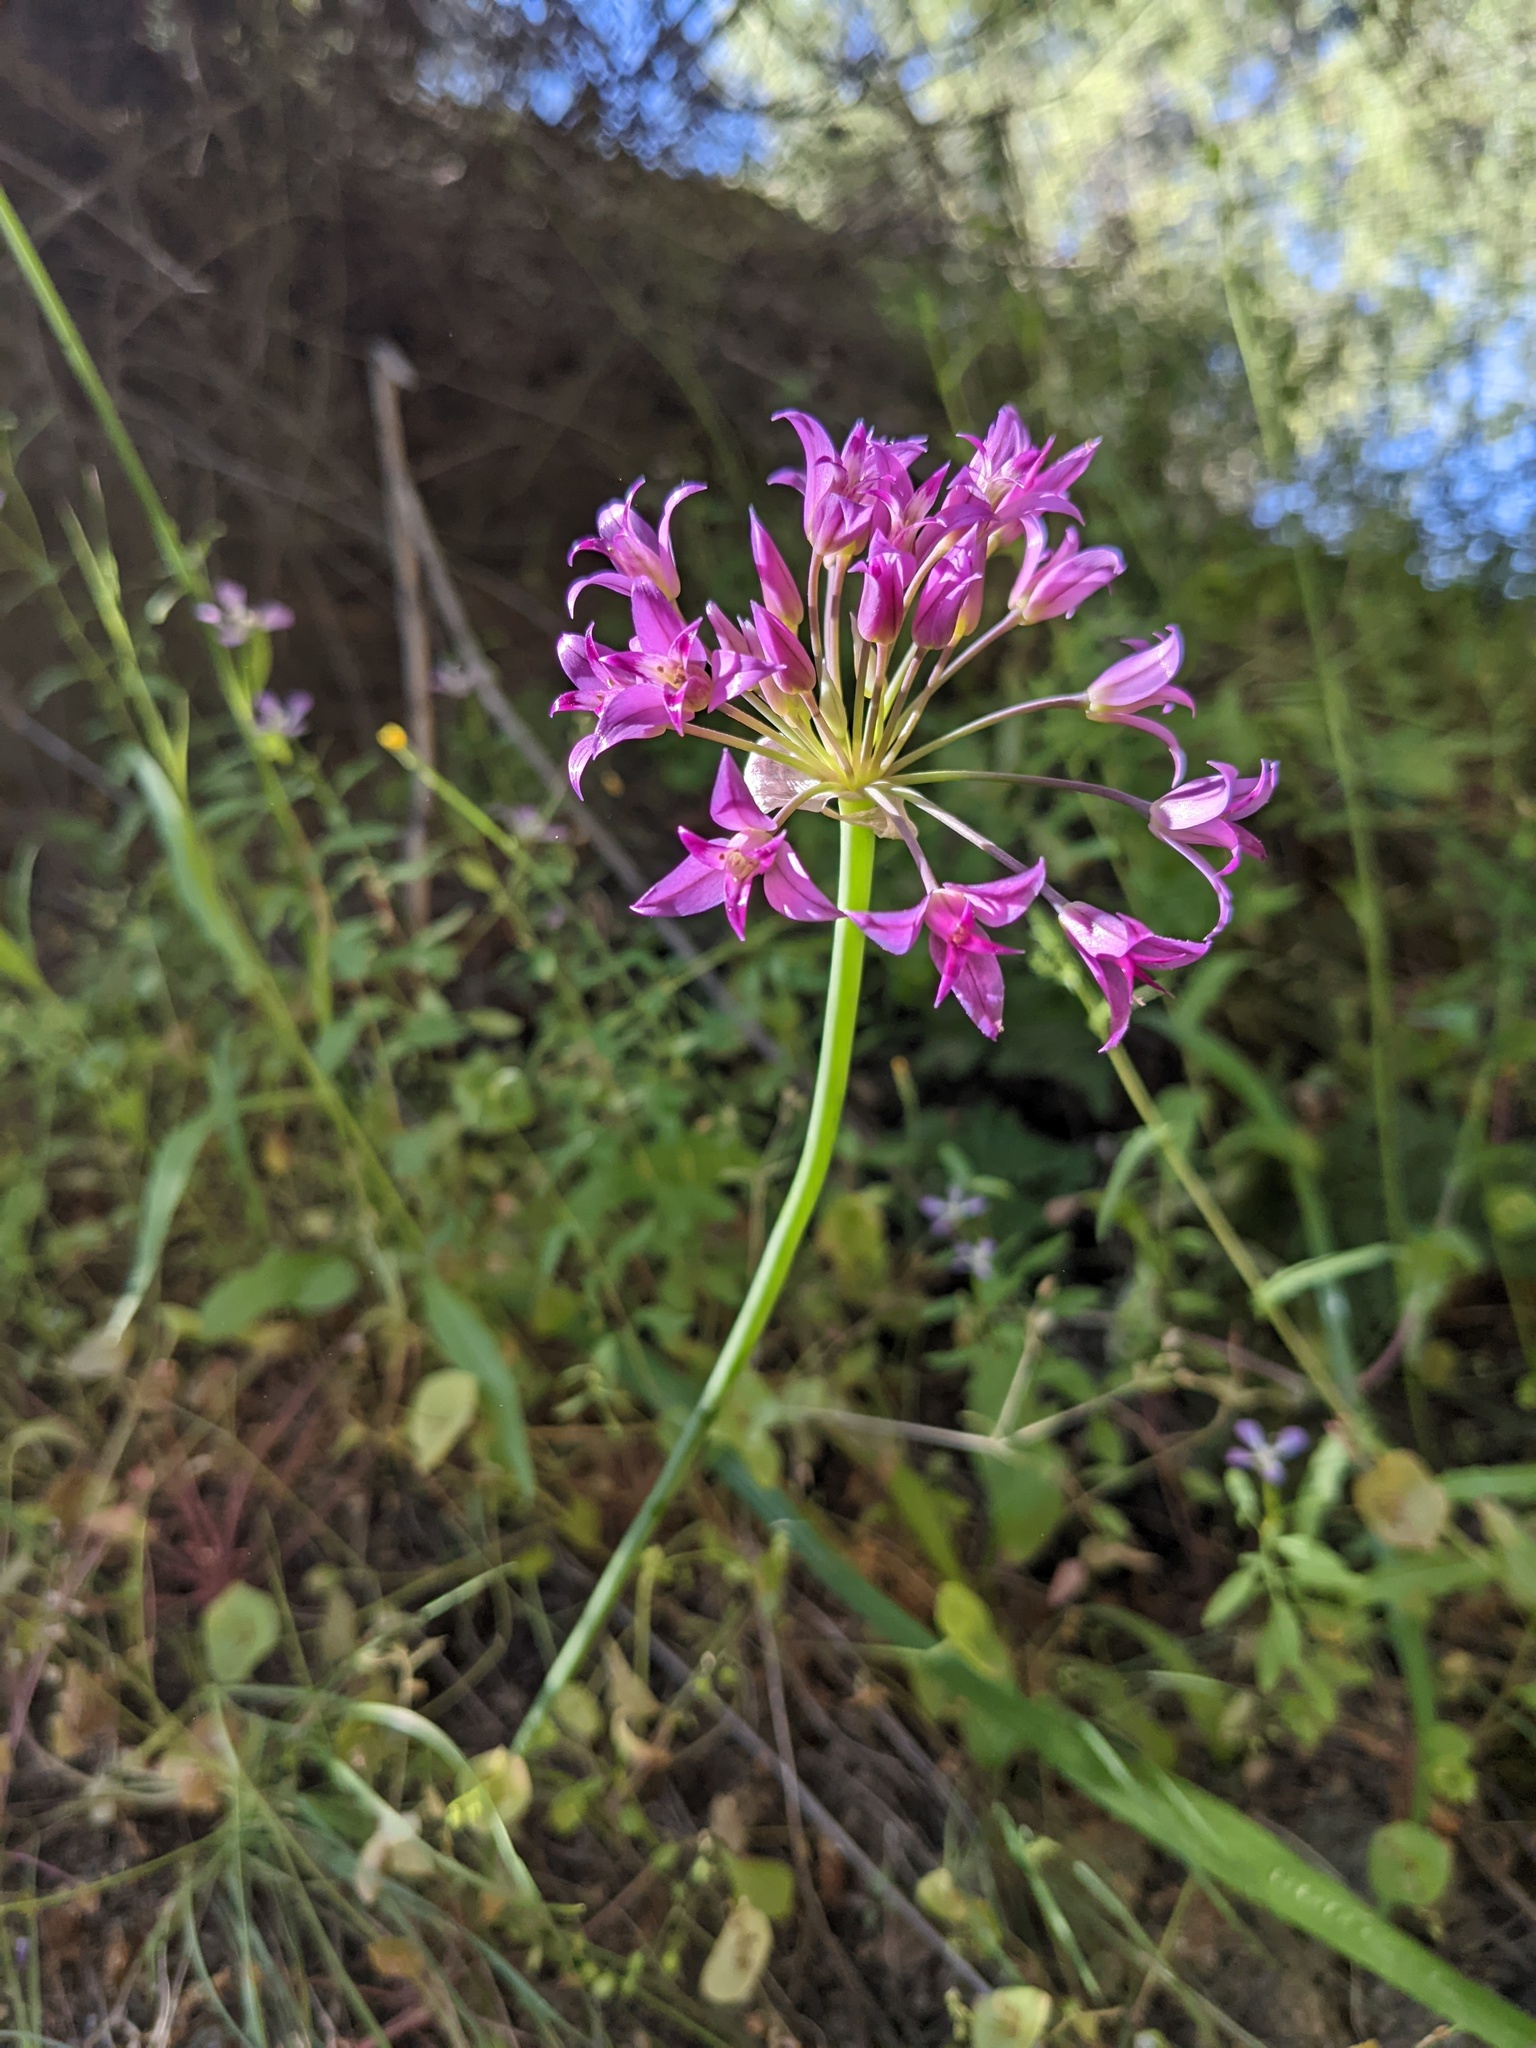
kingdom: Plantae
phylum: Tracheophyta
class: Liliopsida
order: Asparagales
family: Amaryllidaceae
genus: Allium
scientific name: Allium peninsulare
